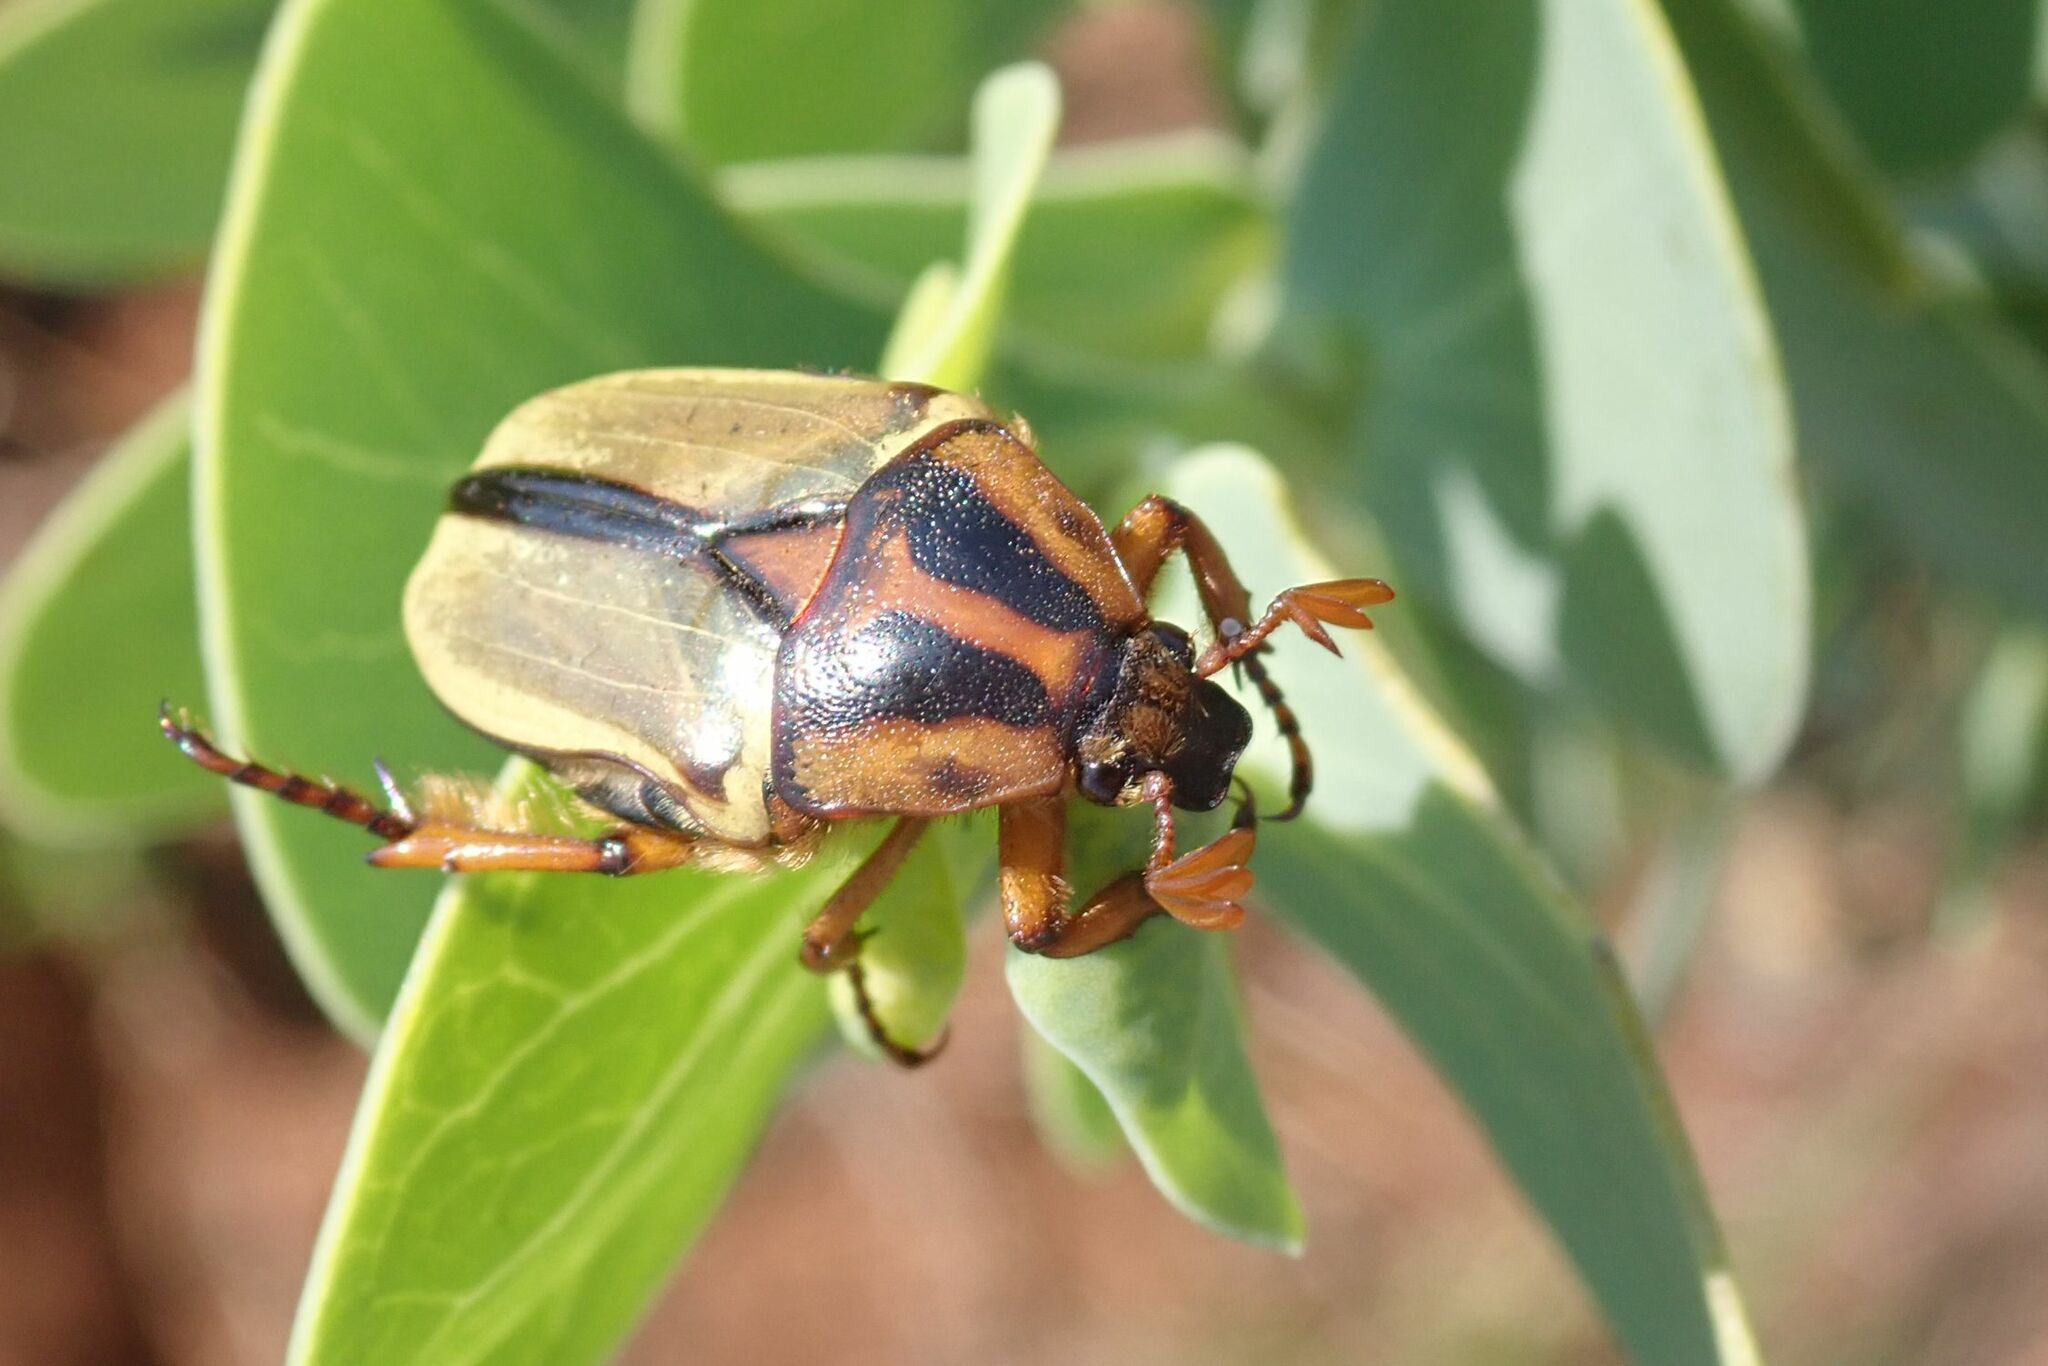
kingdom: Animalia
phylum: Arthropoda
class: Insecta
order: Coleoptera
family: Scarabaeidae
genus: Anisorrhina
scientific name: Anisorrhina umbonata
